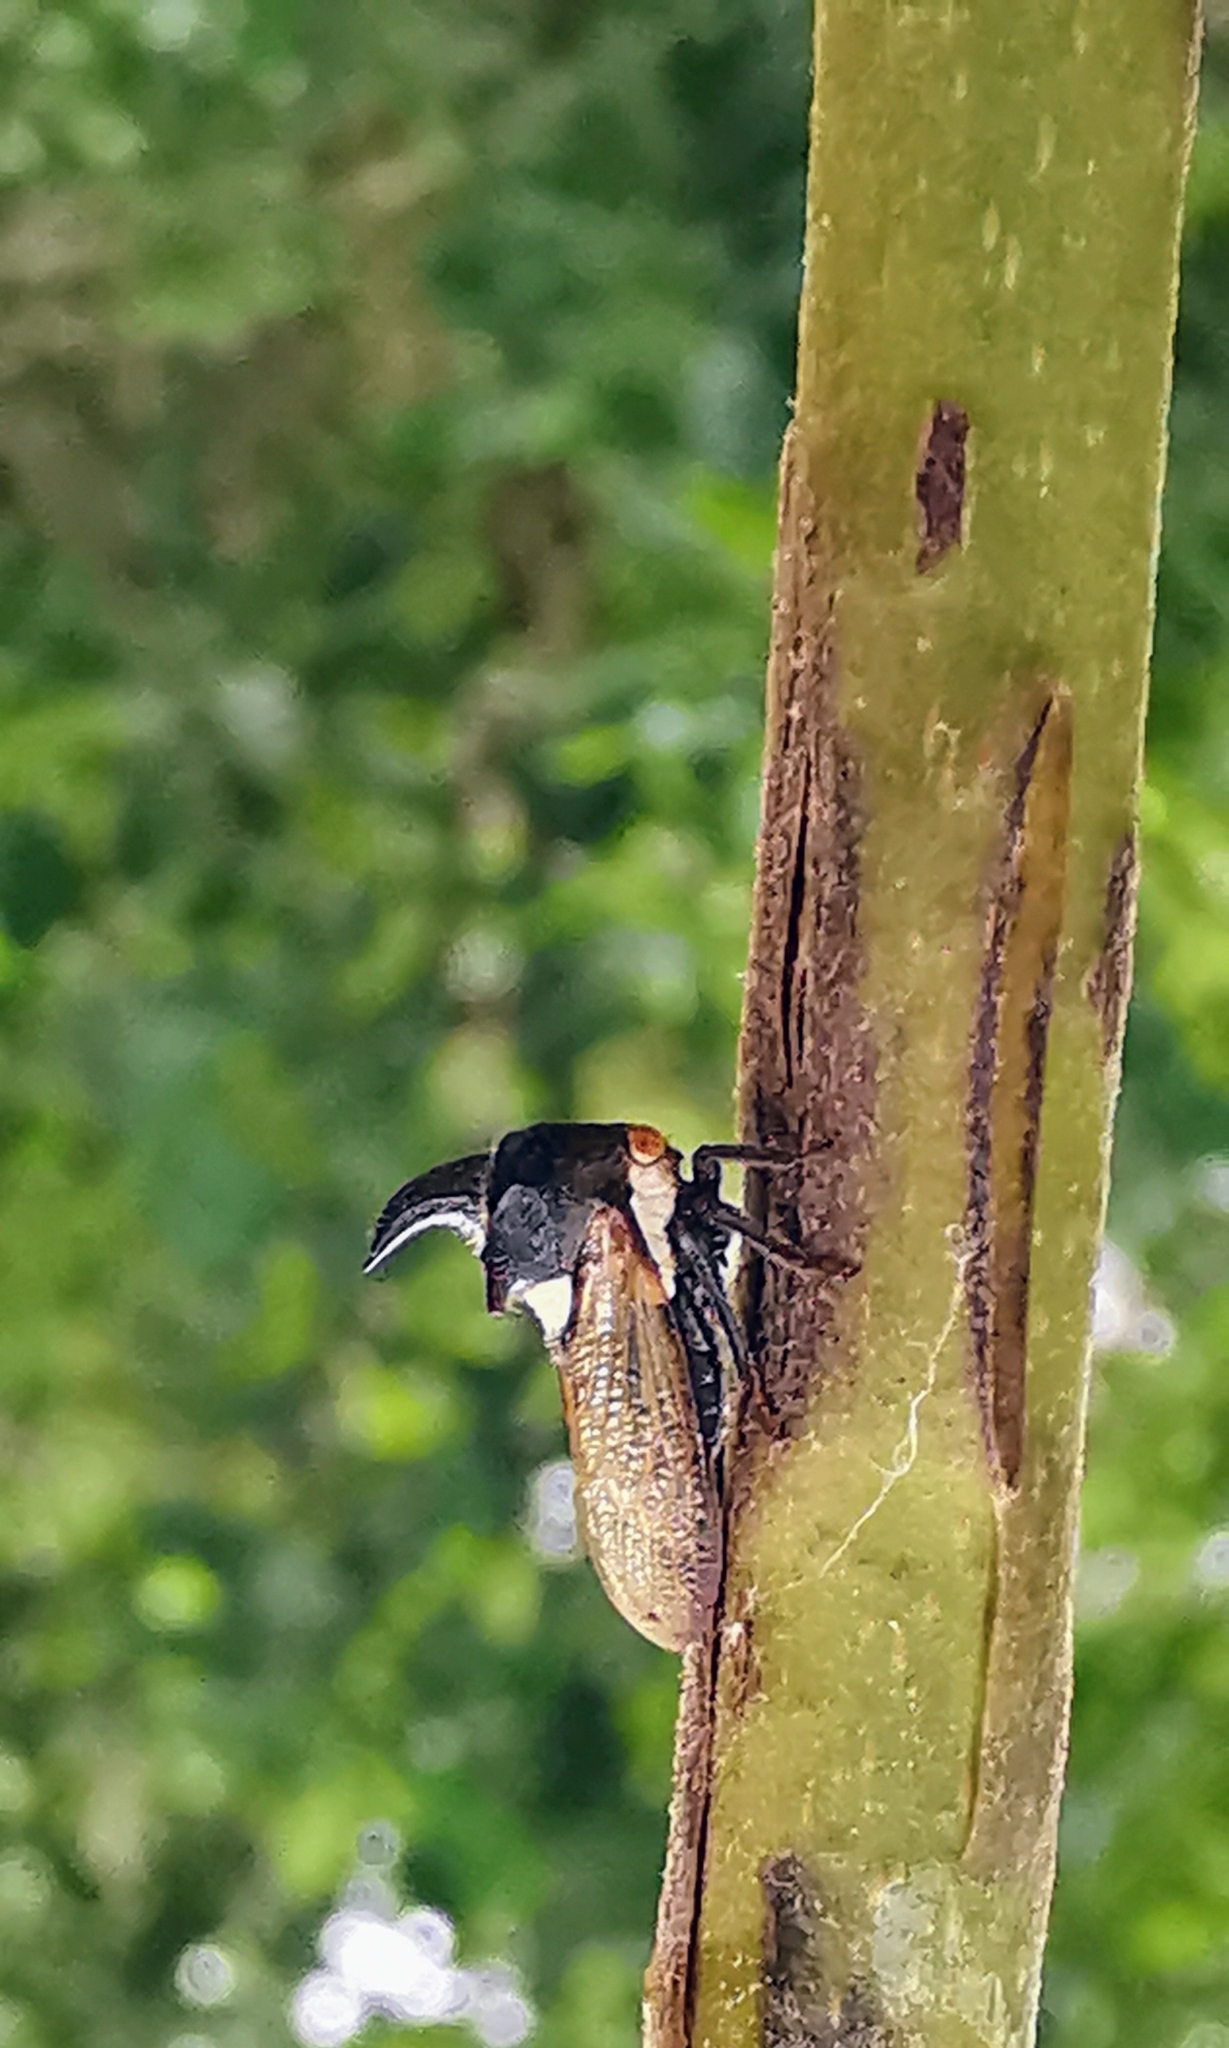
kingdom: Animalia
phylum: Arthropoda
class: Insecta
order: Hemiptera
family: Membracidae
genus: Nilautama
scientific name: Nilautama minutispina
